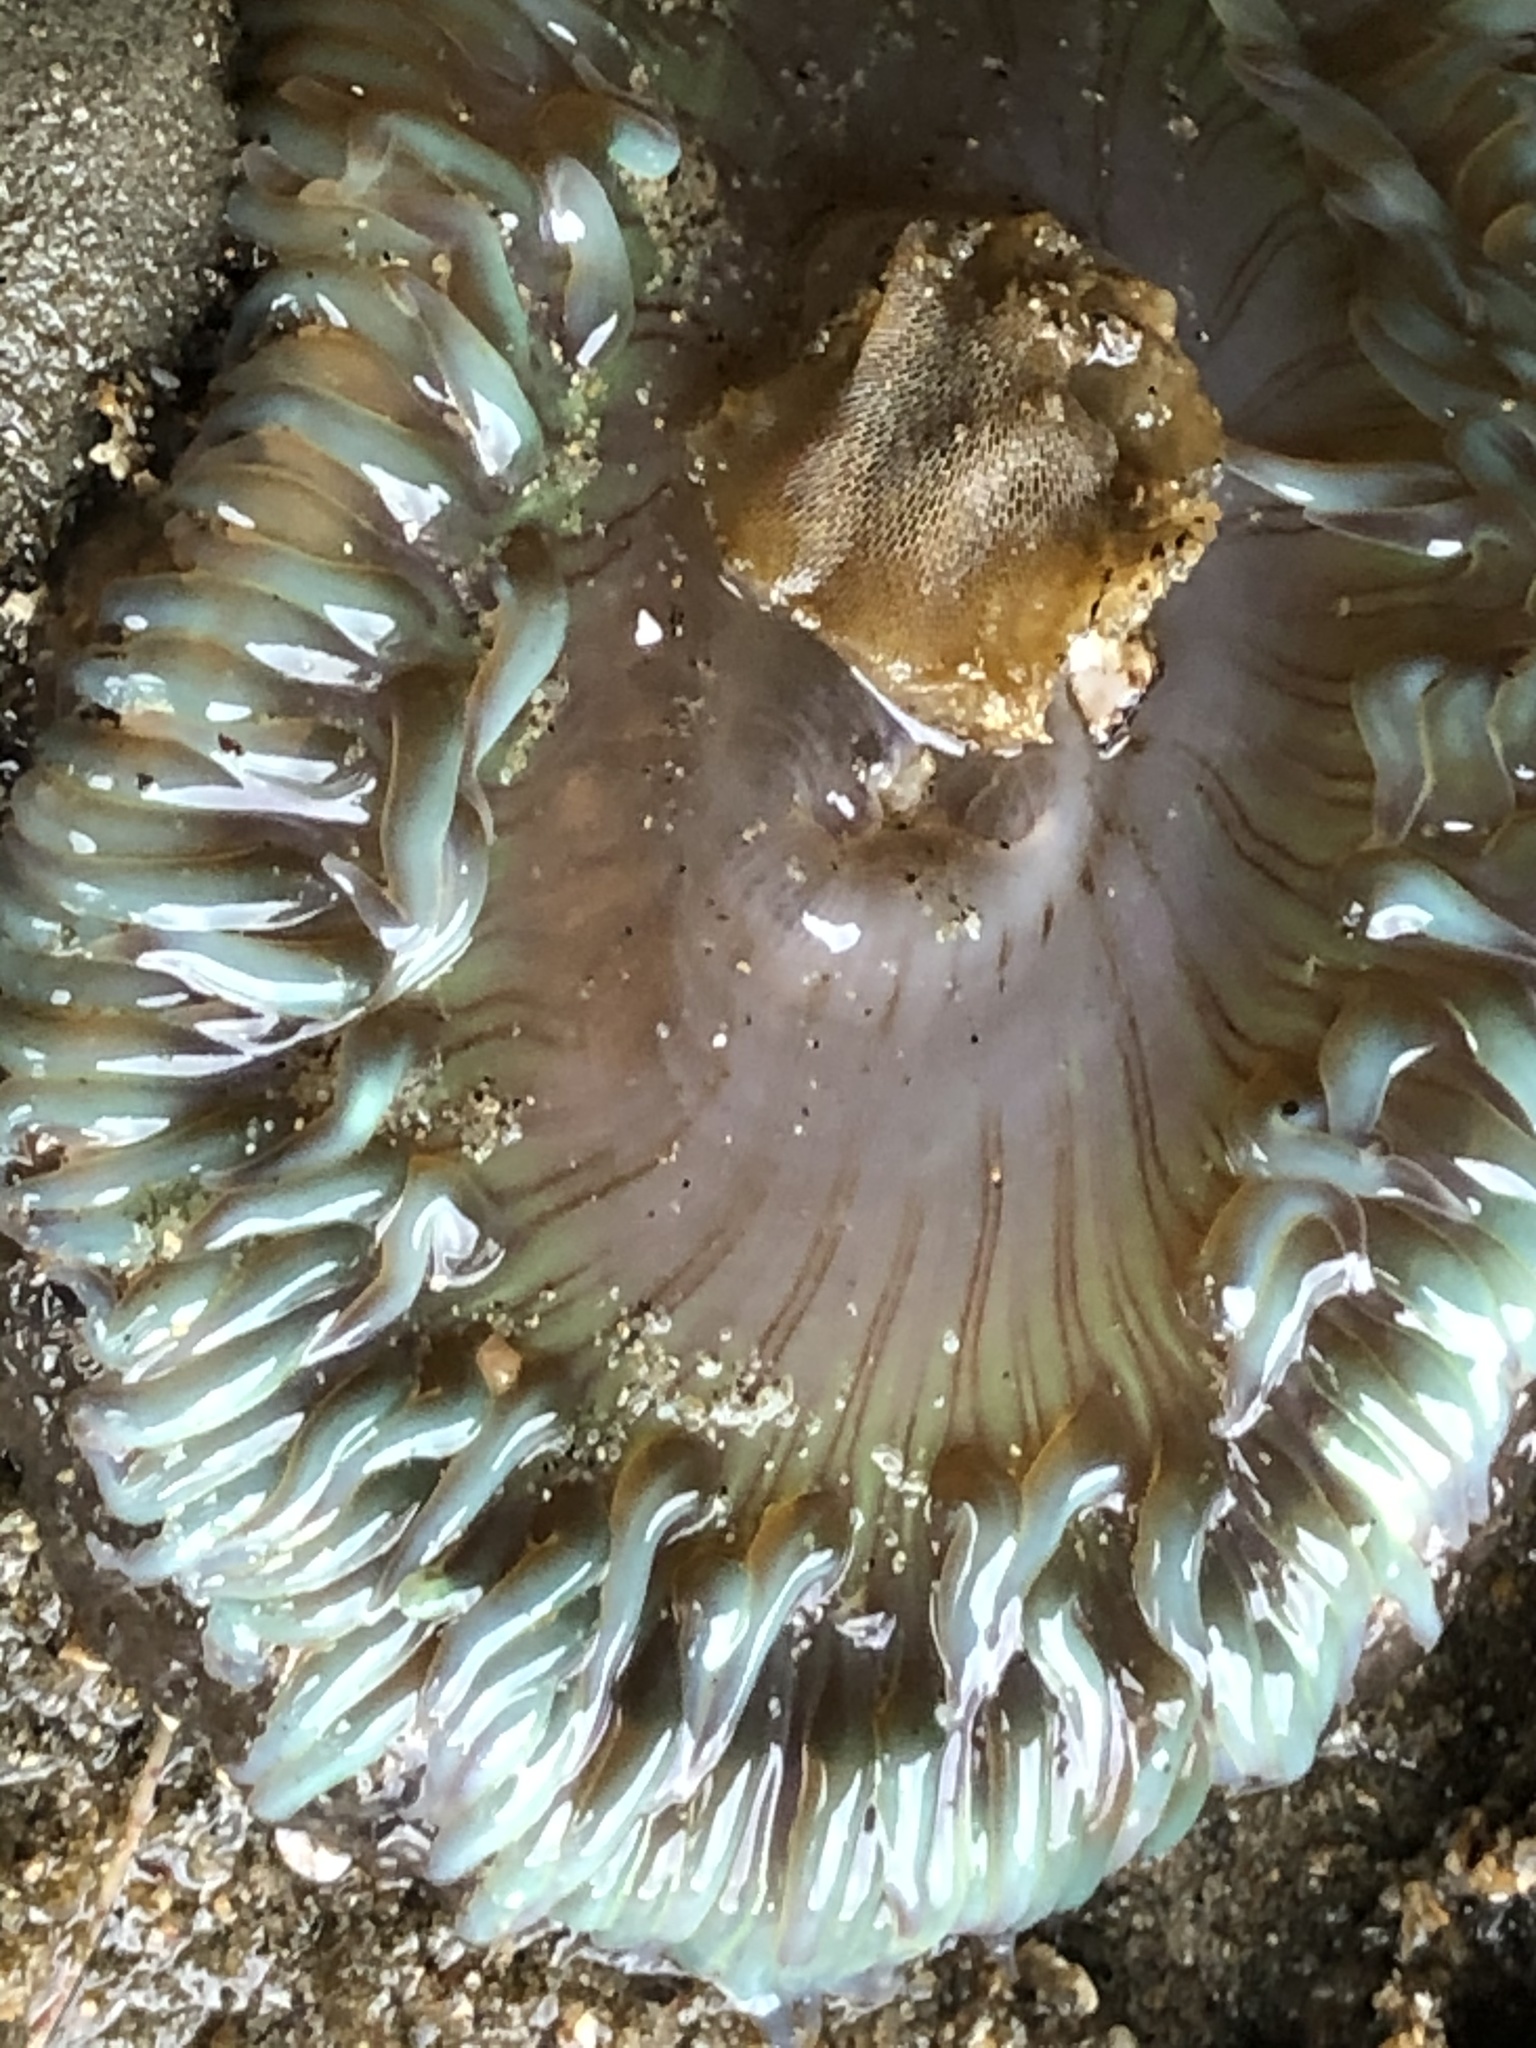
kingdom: Animalia
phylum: Cnidaria
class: Anthozoa
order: Actiniaria
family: Actiniidae
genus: Anthopleura
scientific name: Anthopleura sola
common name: Sun anemone
